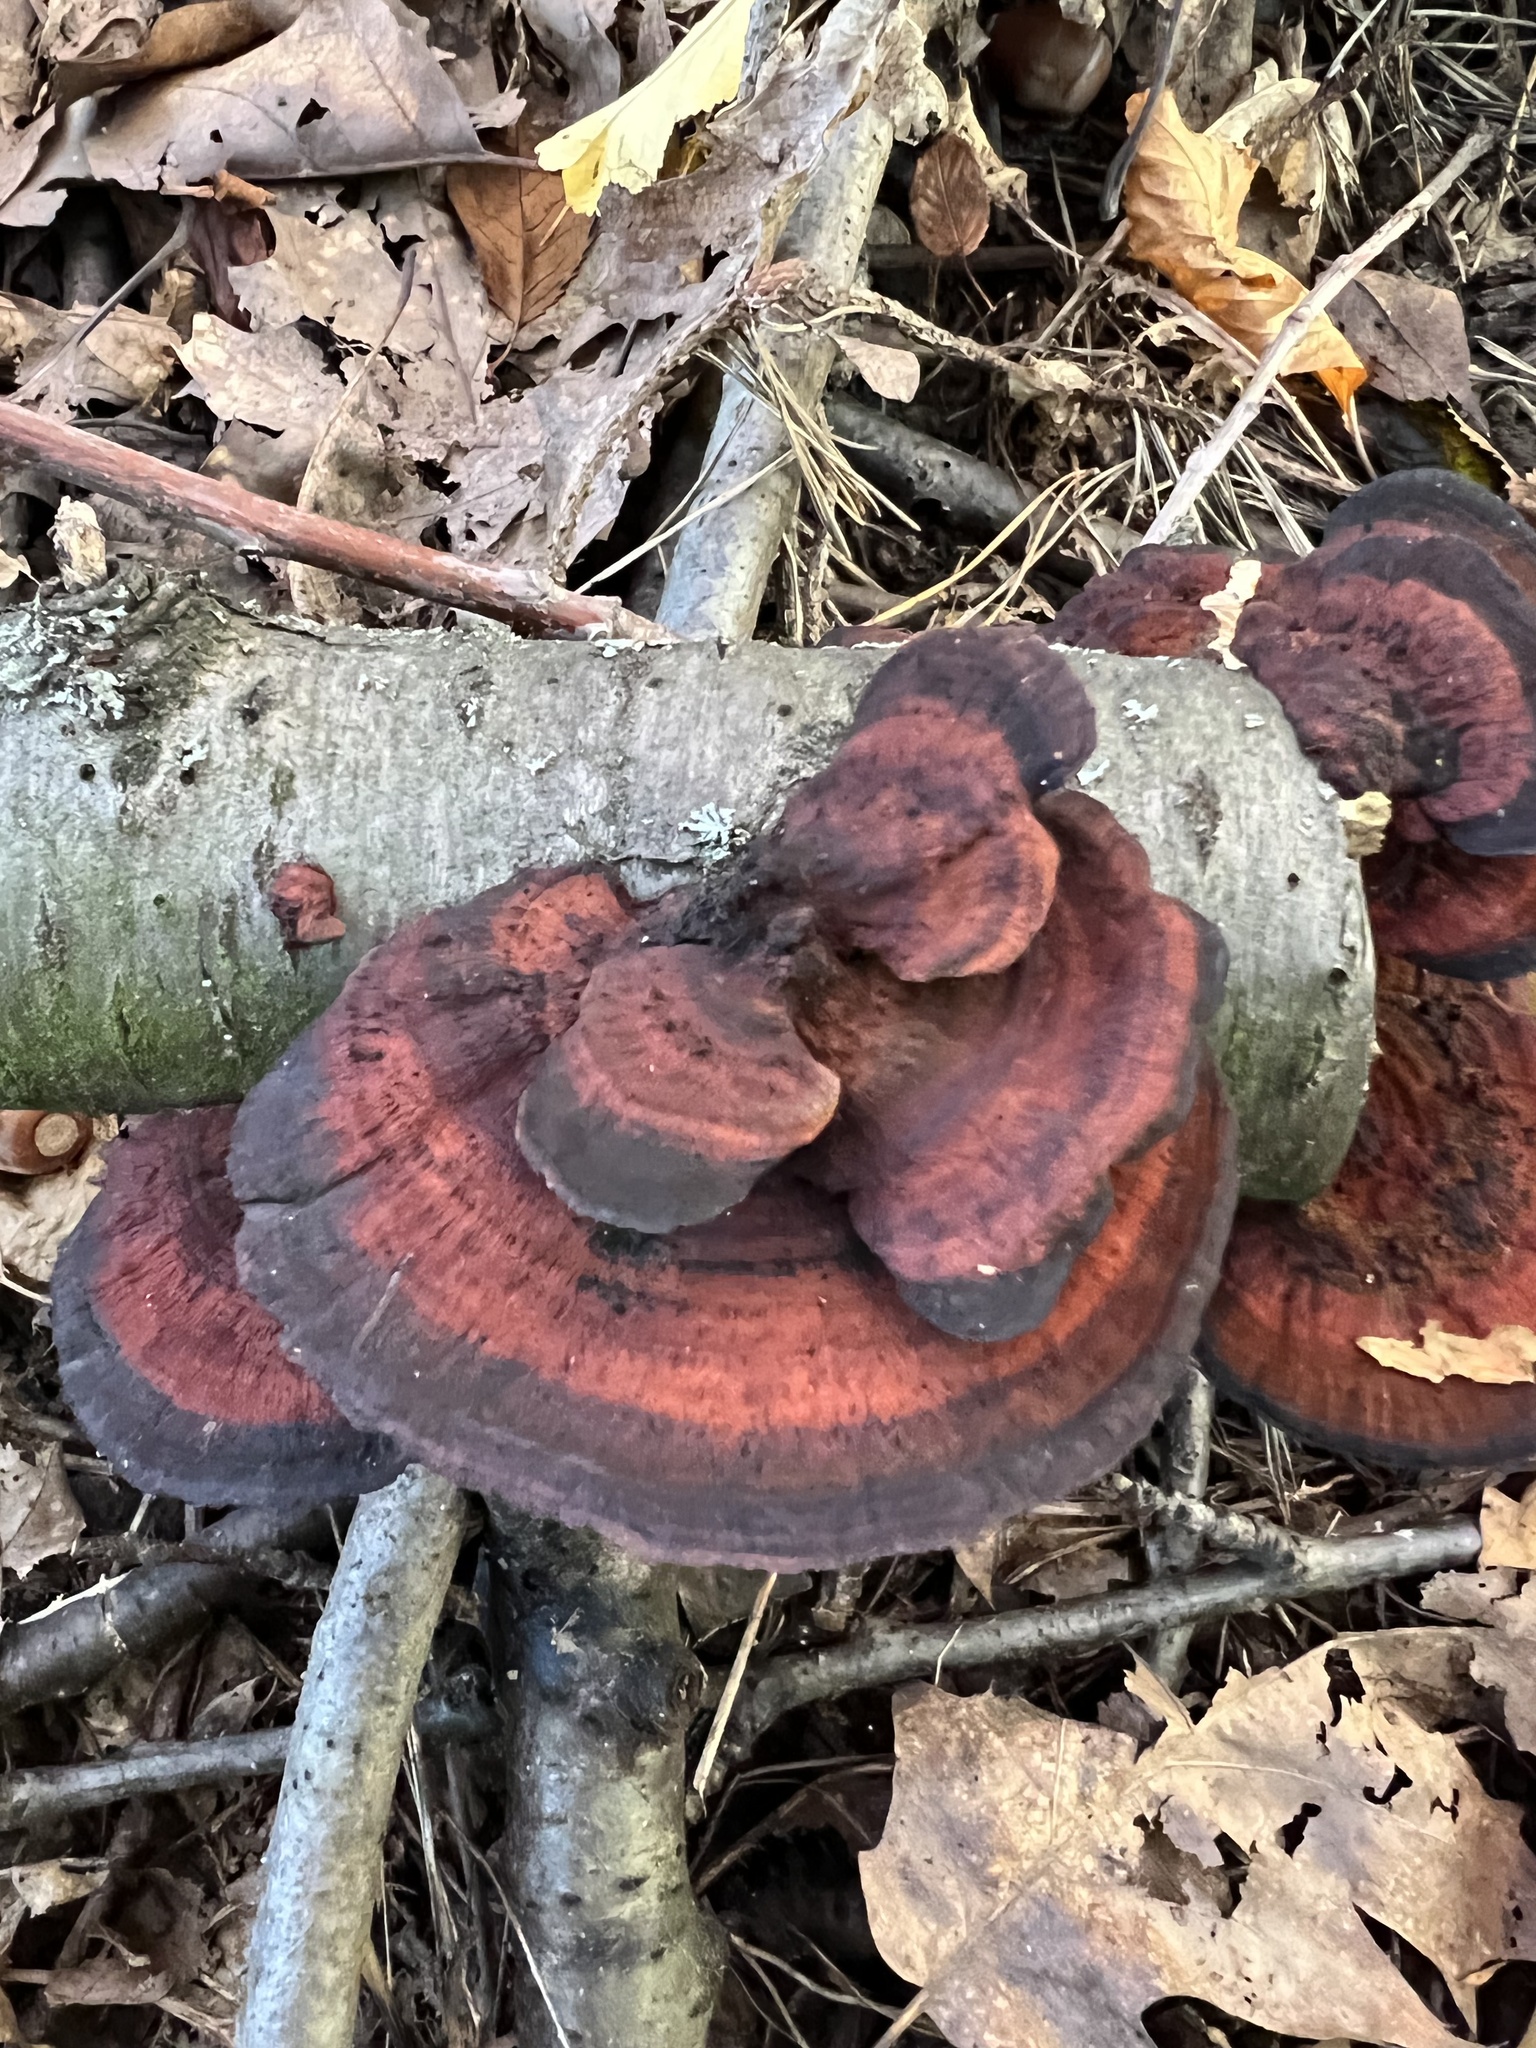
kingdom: Fungi
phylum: Basidiomycota
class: Agaricomycetes
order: Polyporales
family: Polyporaceae
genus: Daedaleopsis
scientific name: Daedaleopsis tricolor
